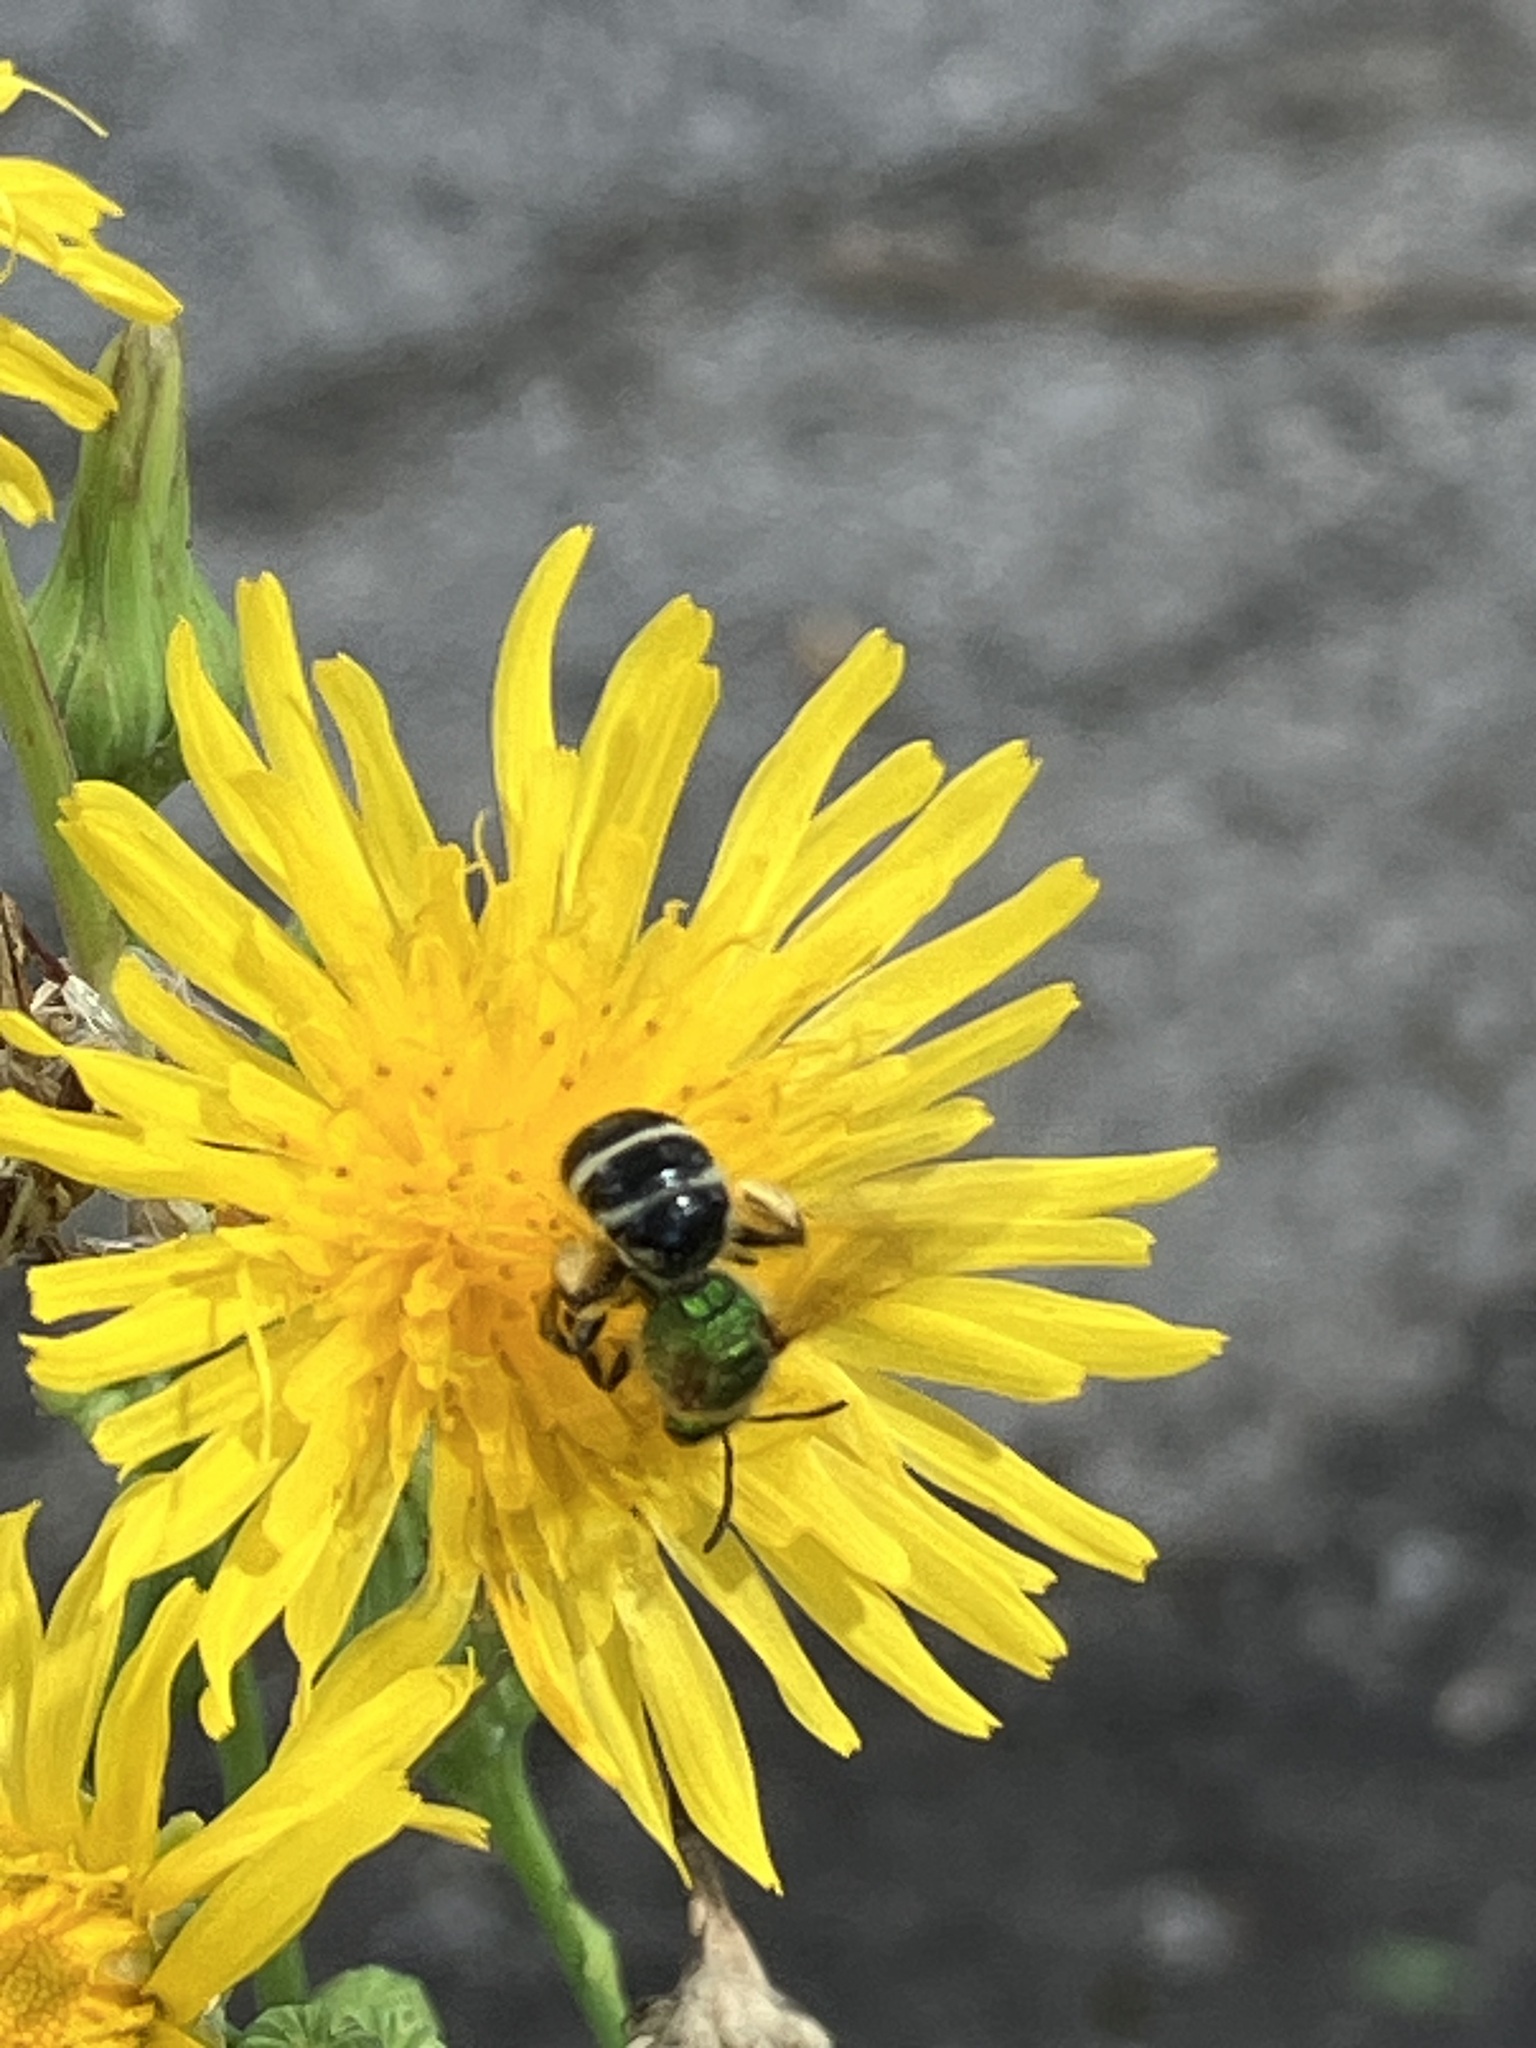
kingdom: Animalia
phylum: Arthropoda
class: Insecta
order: Hymenoptera
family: Halictidae
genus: Agapostemon
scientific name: Agapostemon virescens
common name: Bicolored striped sweat bee
